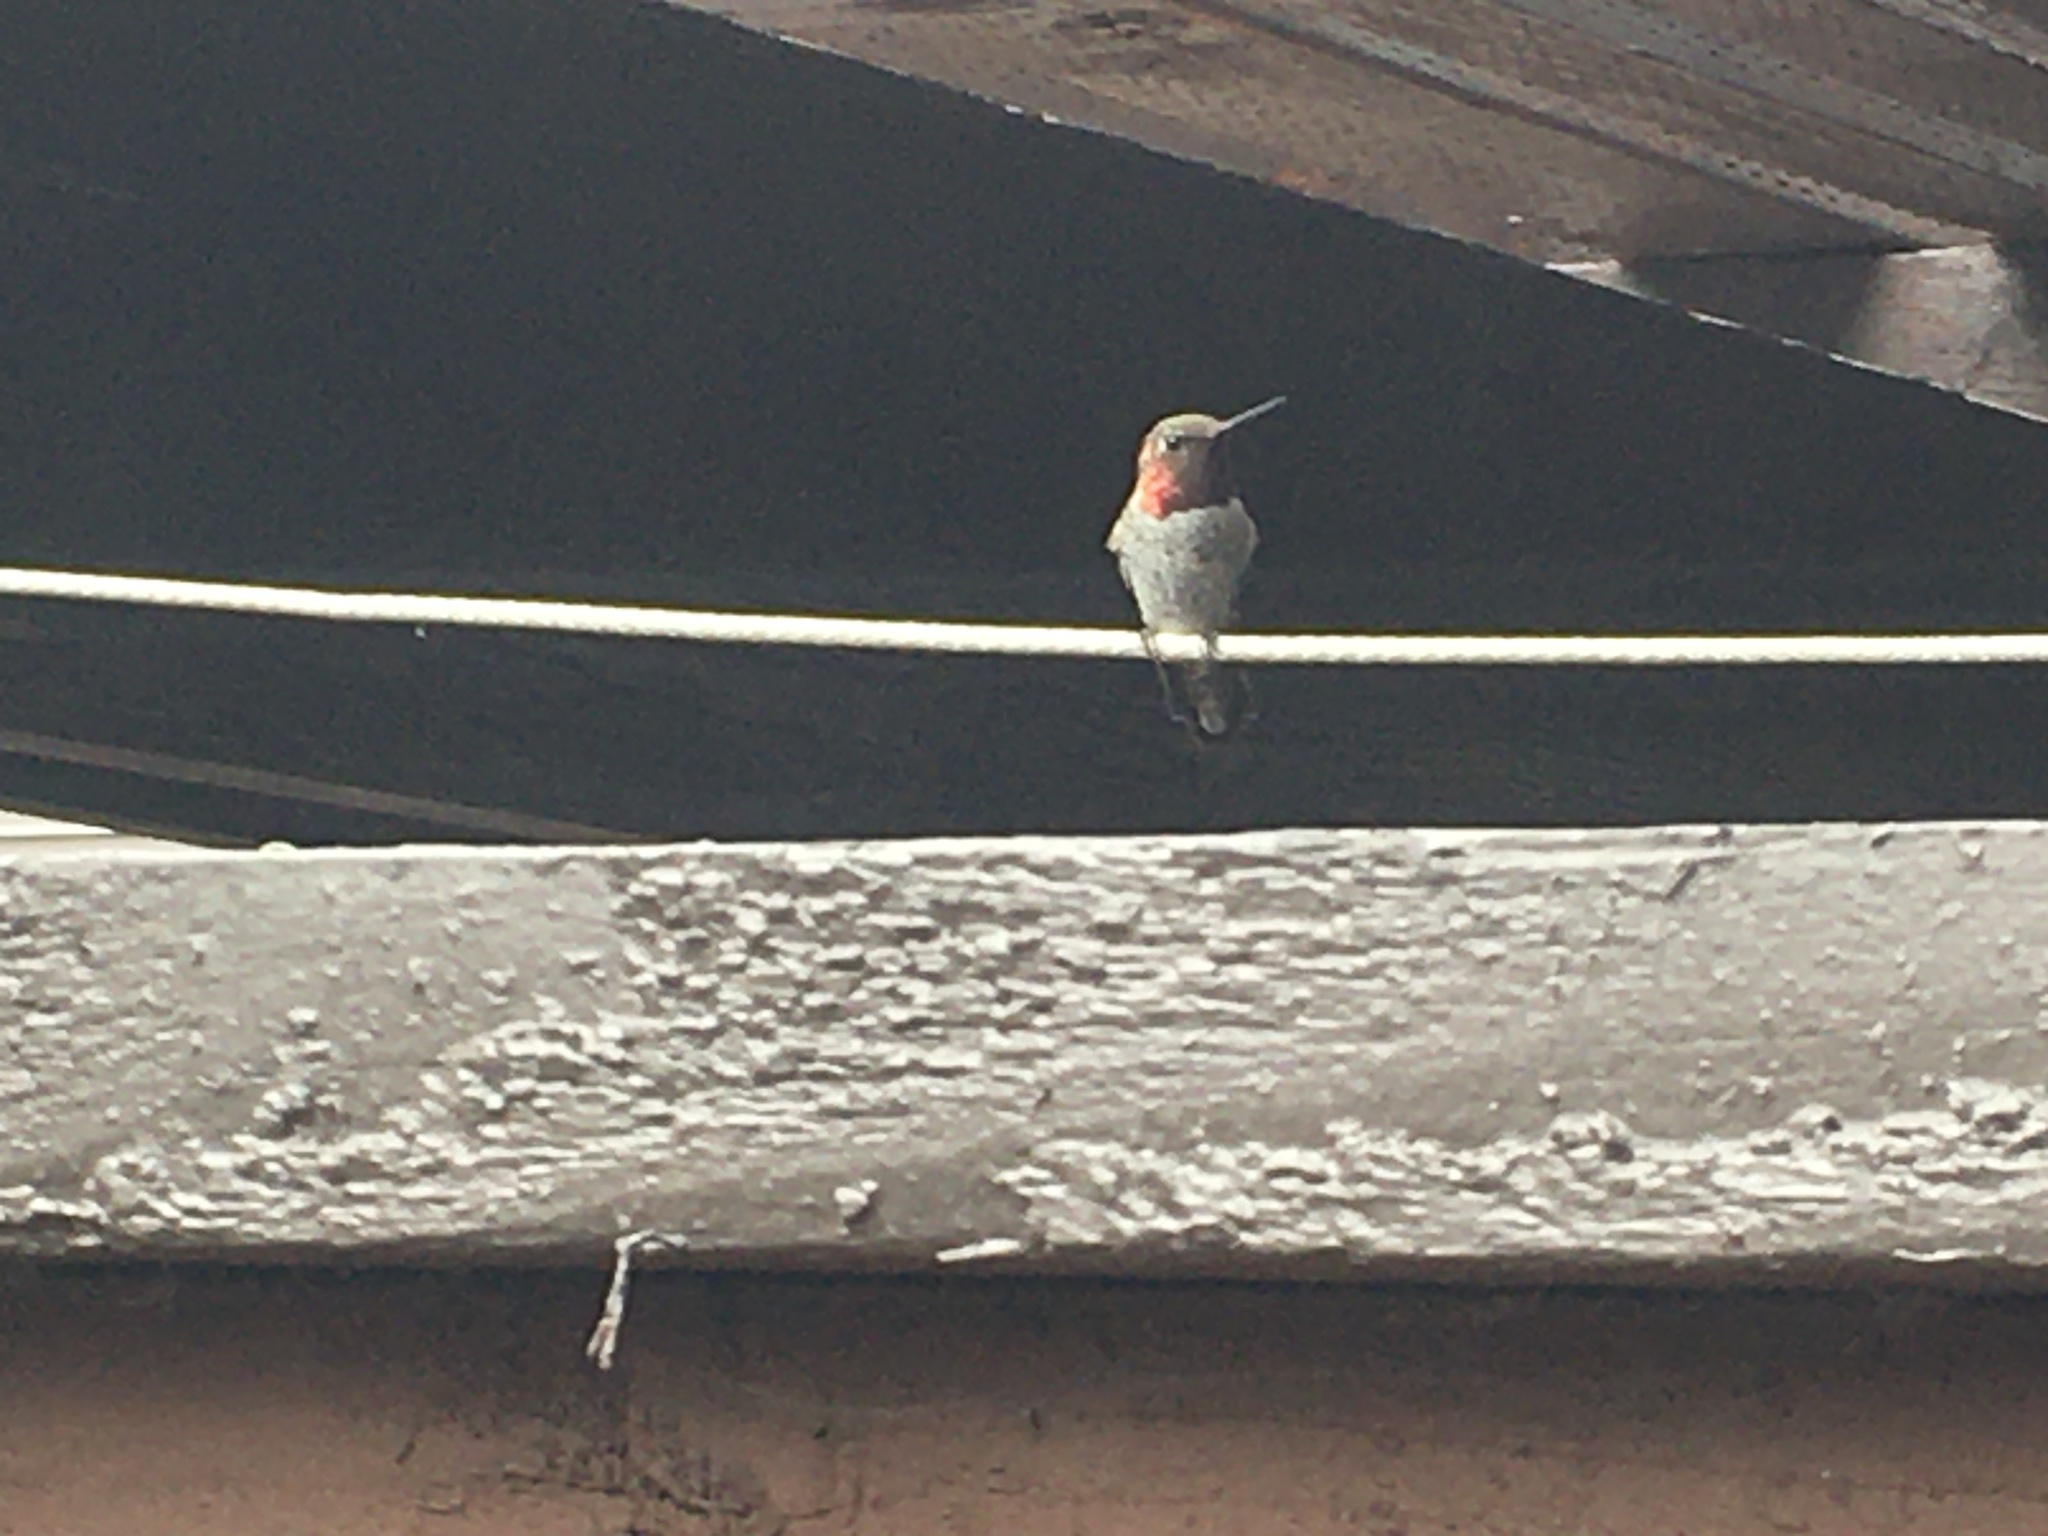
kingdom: Animalia
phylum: Chordata
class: Aves
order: Apodiformes
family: Trochilidae
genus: Calypte
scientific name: Calypte anna
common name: Anna's hummingbird
